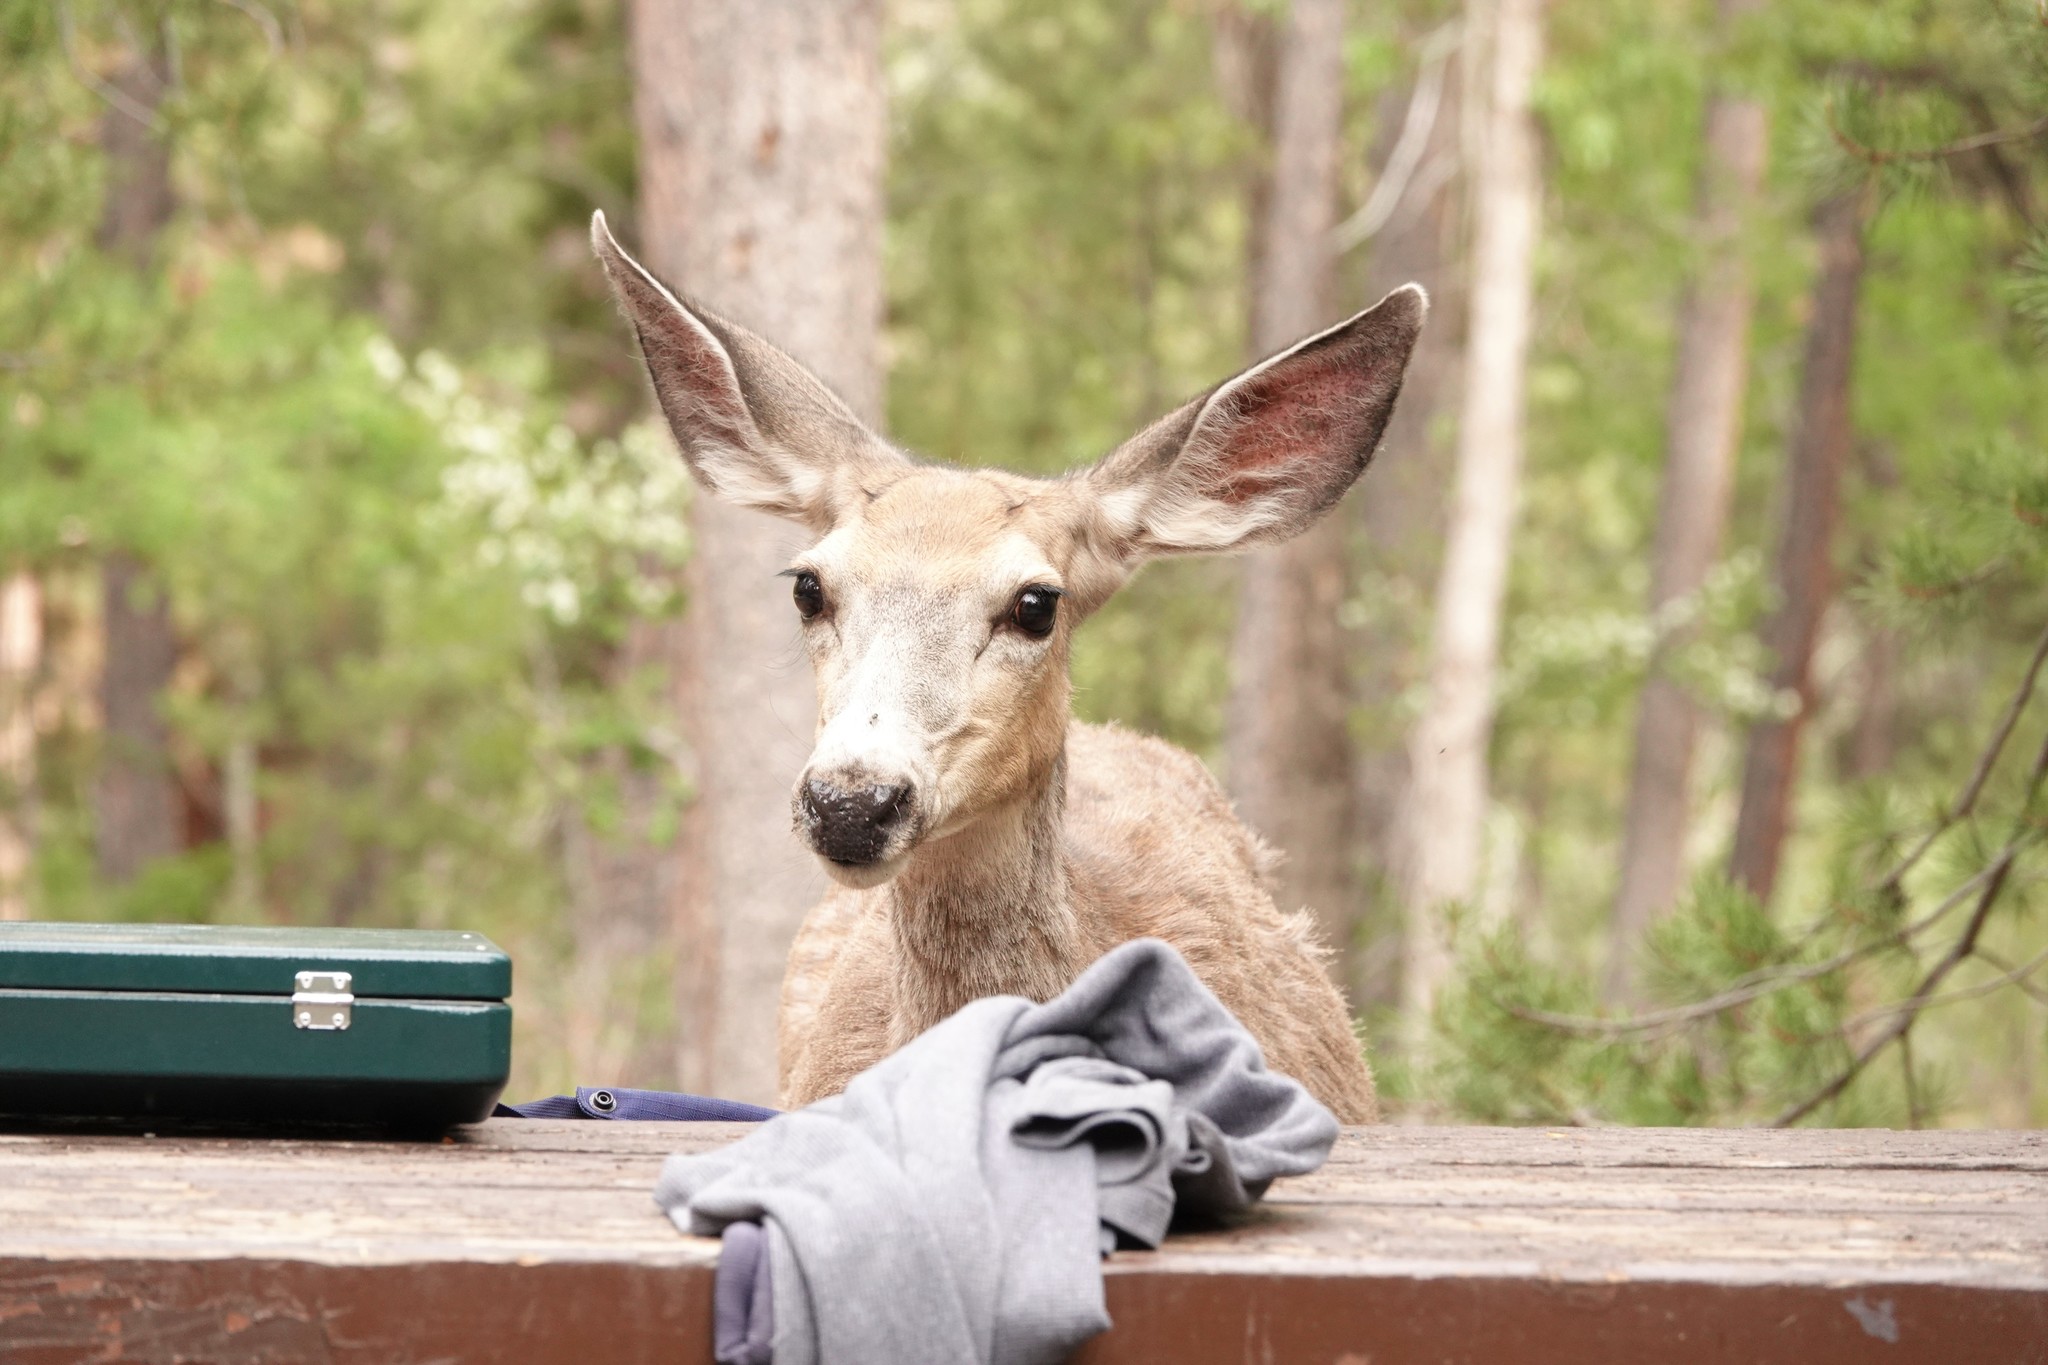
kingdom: Animalia
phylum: Chordata
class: Mammalia
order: Artiodactyla
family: Cervidae
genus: Odocoileus
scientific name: Odocoileus hemionus
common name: Mule deer
